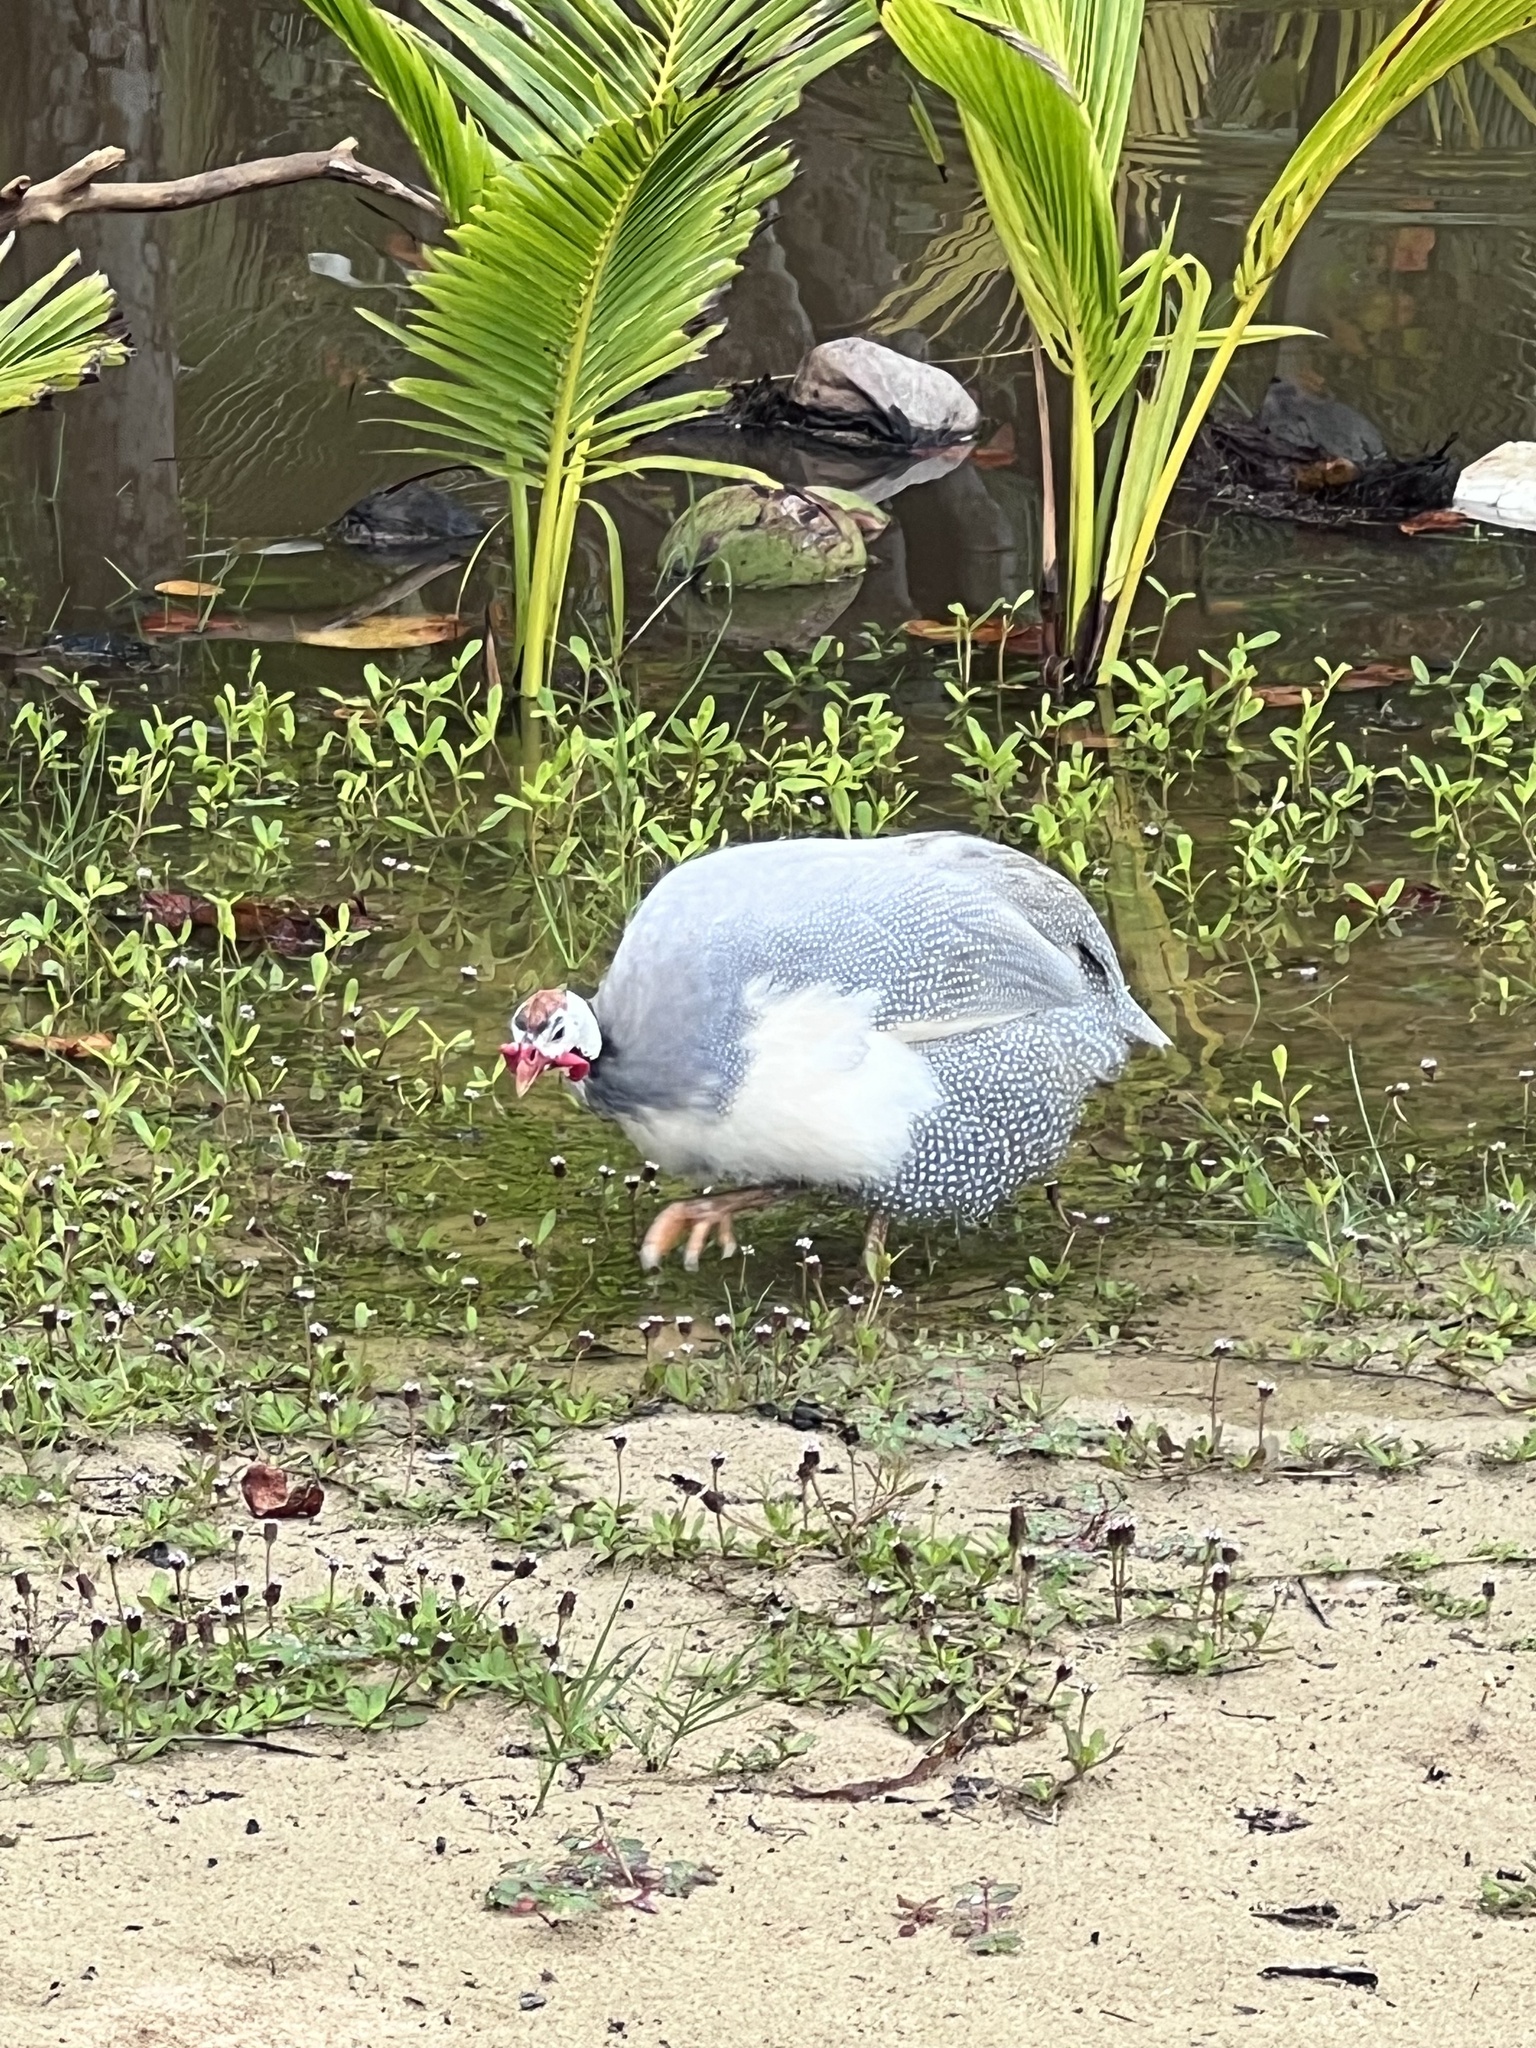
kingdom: Animalia
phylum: Chordata
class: Aves
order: Galliformes
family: Numididae
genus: Numida
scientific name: Numida meleagris
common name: Helmeted guineafowl
